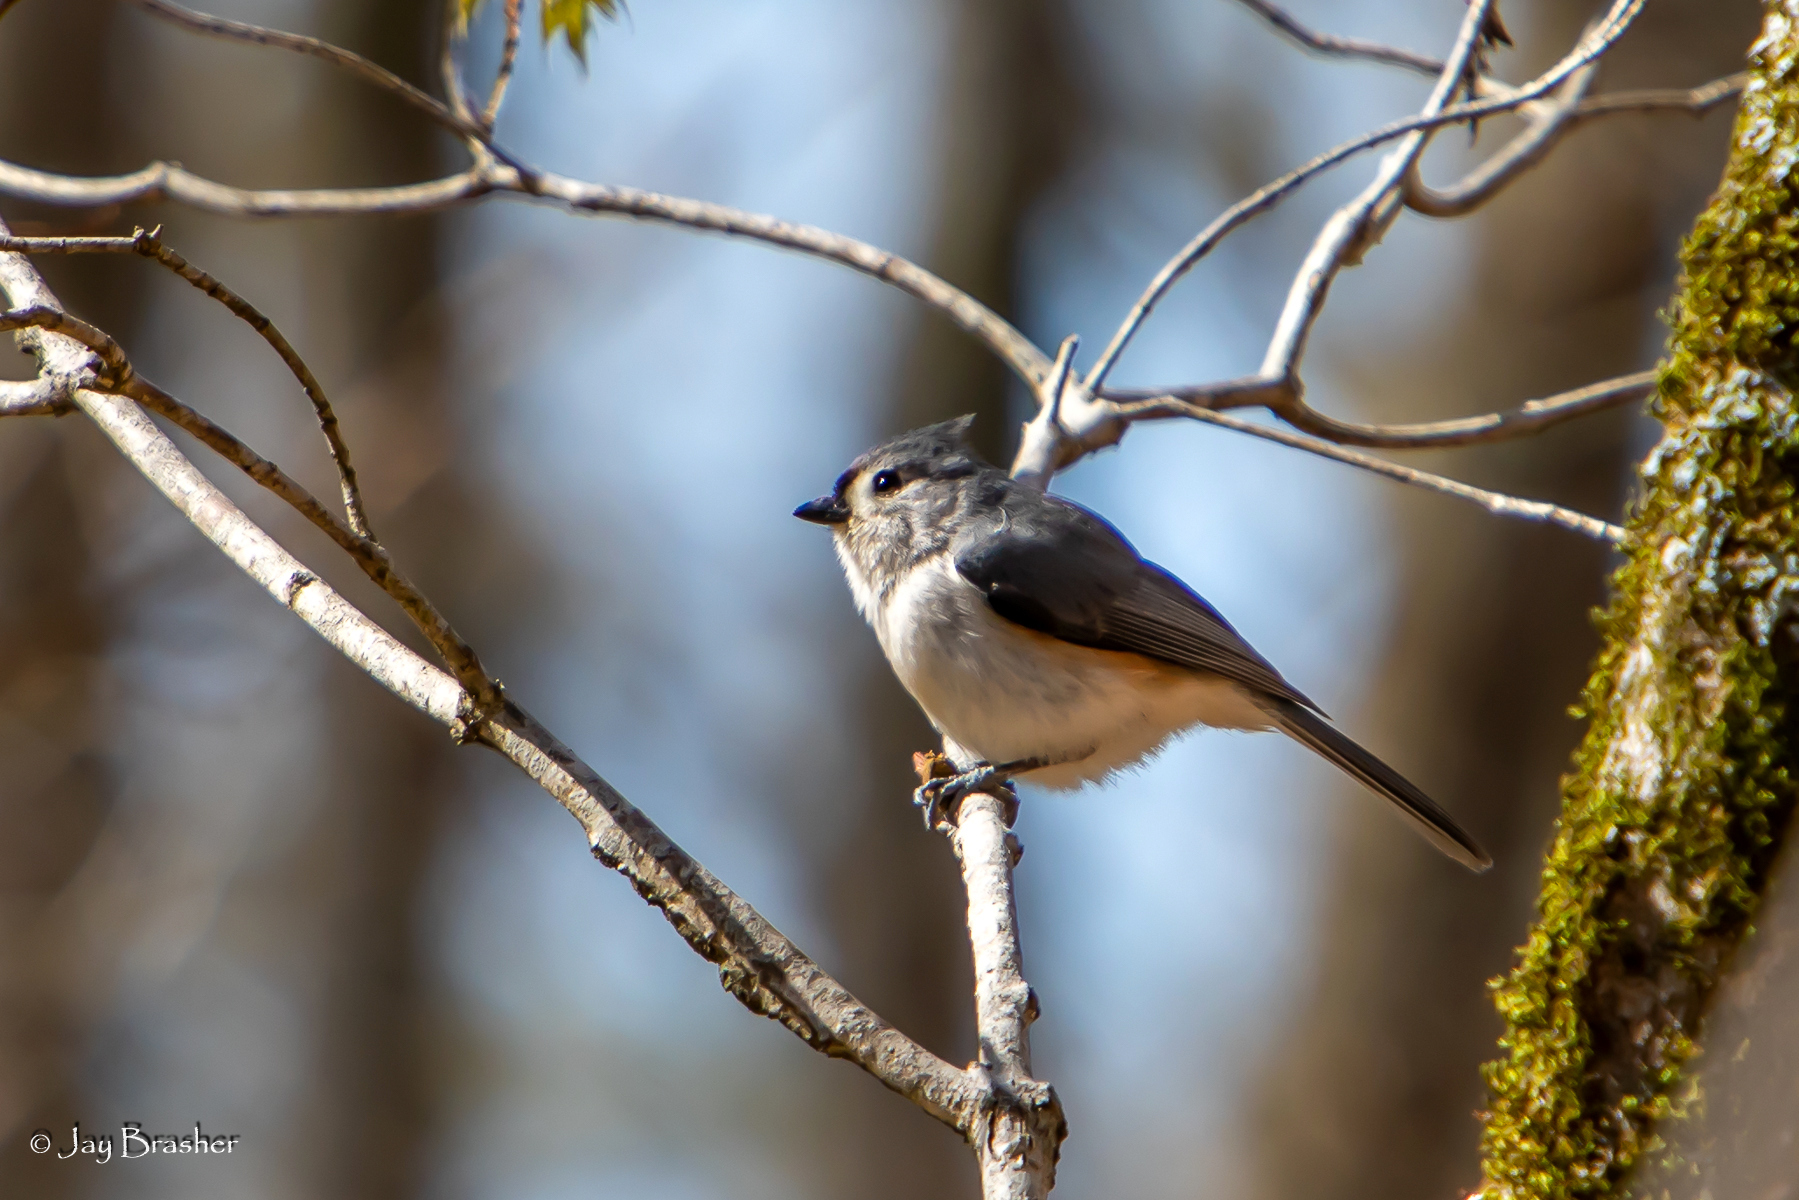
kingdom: Animalia
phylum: Chordata
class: Aves
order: Passeriformes
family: Paridae
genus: Baeolophus
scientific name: Baeolophus bicolor
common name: Tufted titmouse
